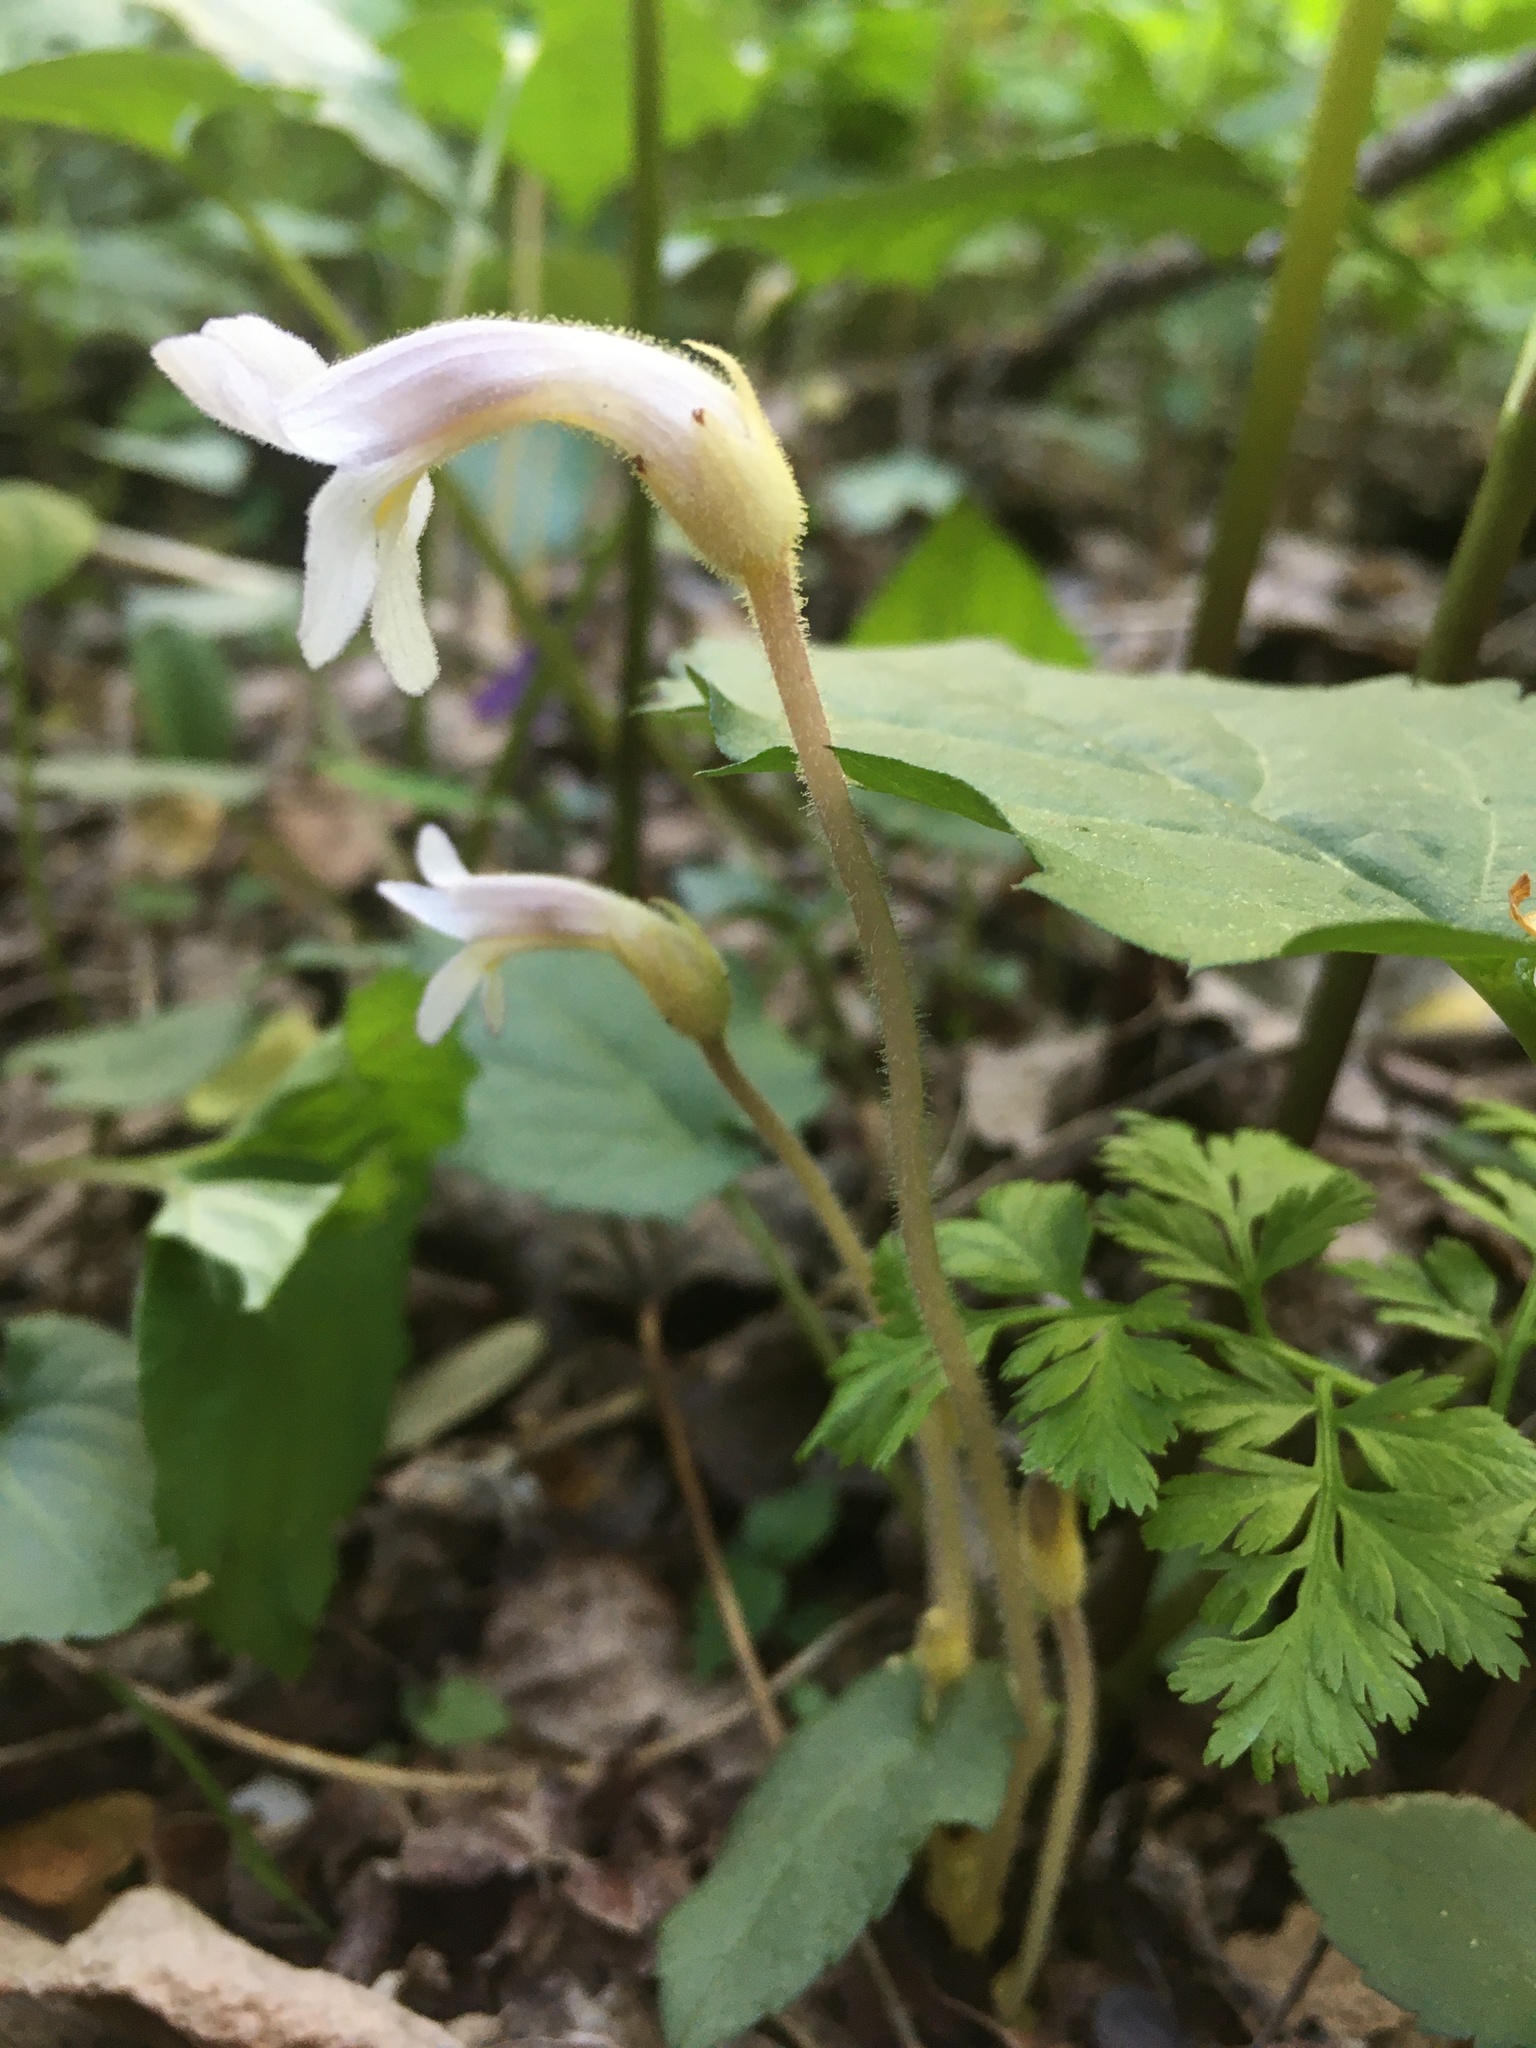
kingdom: Plantae
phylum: Tracheophyta
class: Magnoliopsida
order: Lamiales
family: Orobanchaceae
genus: Aphyllon
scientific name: Aphyllon uniflorum
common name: One-flowered broomrape
